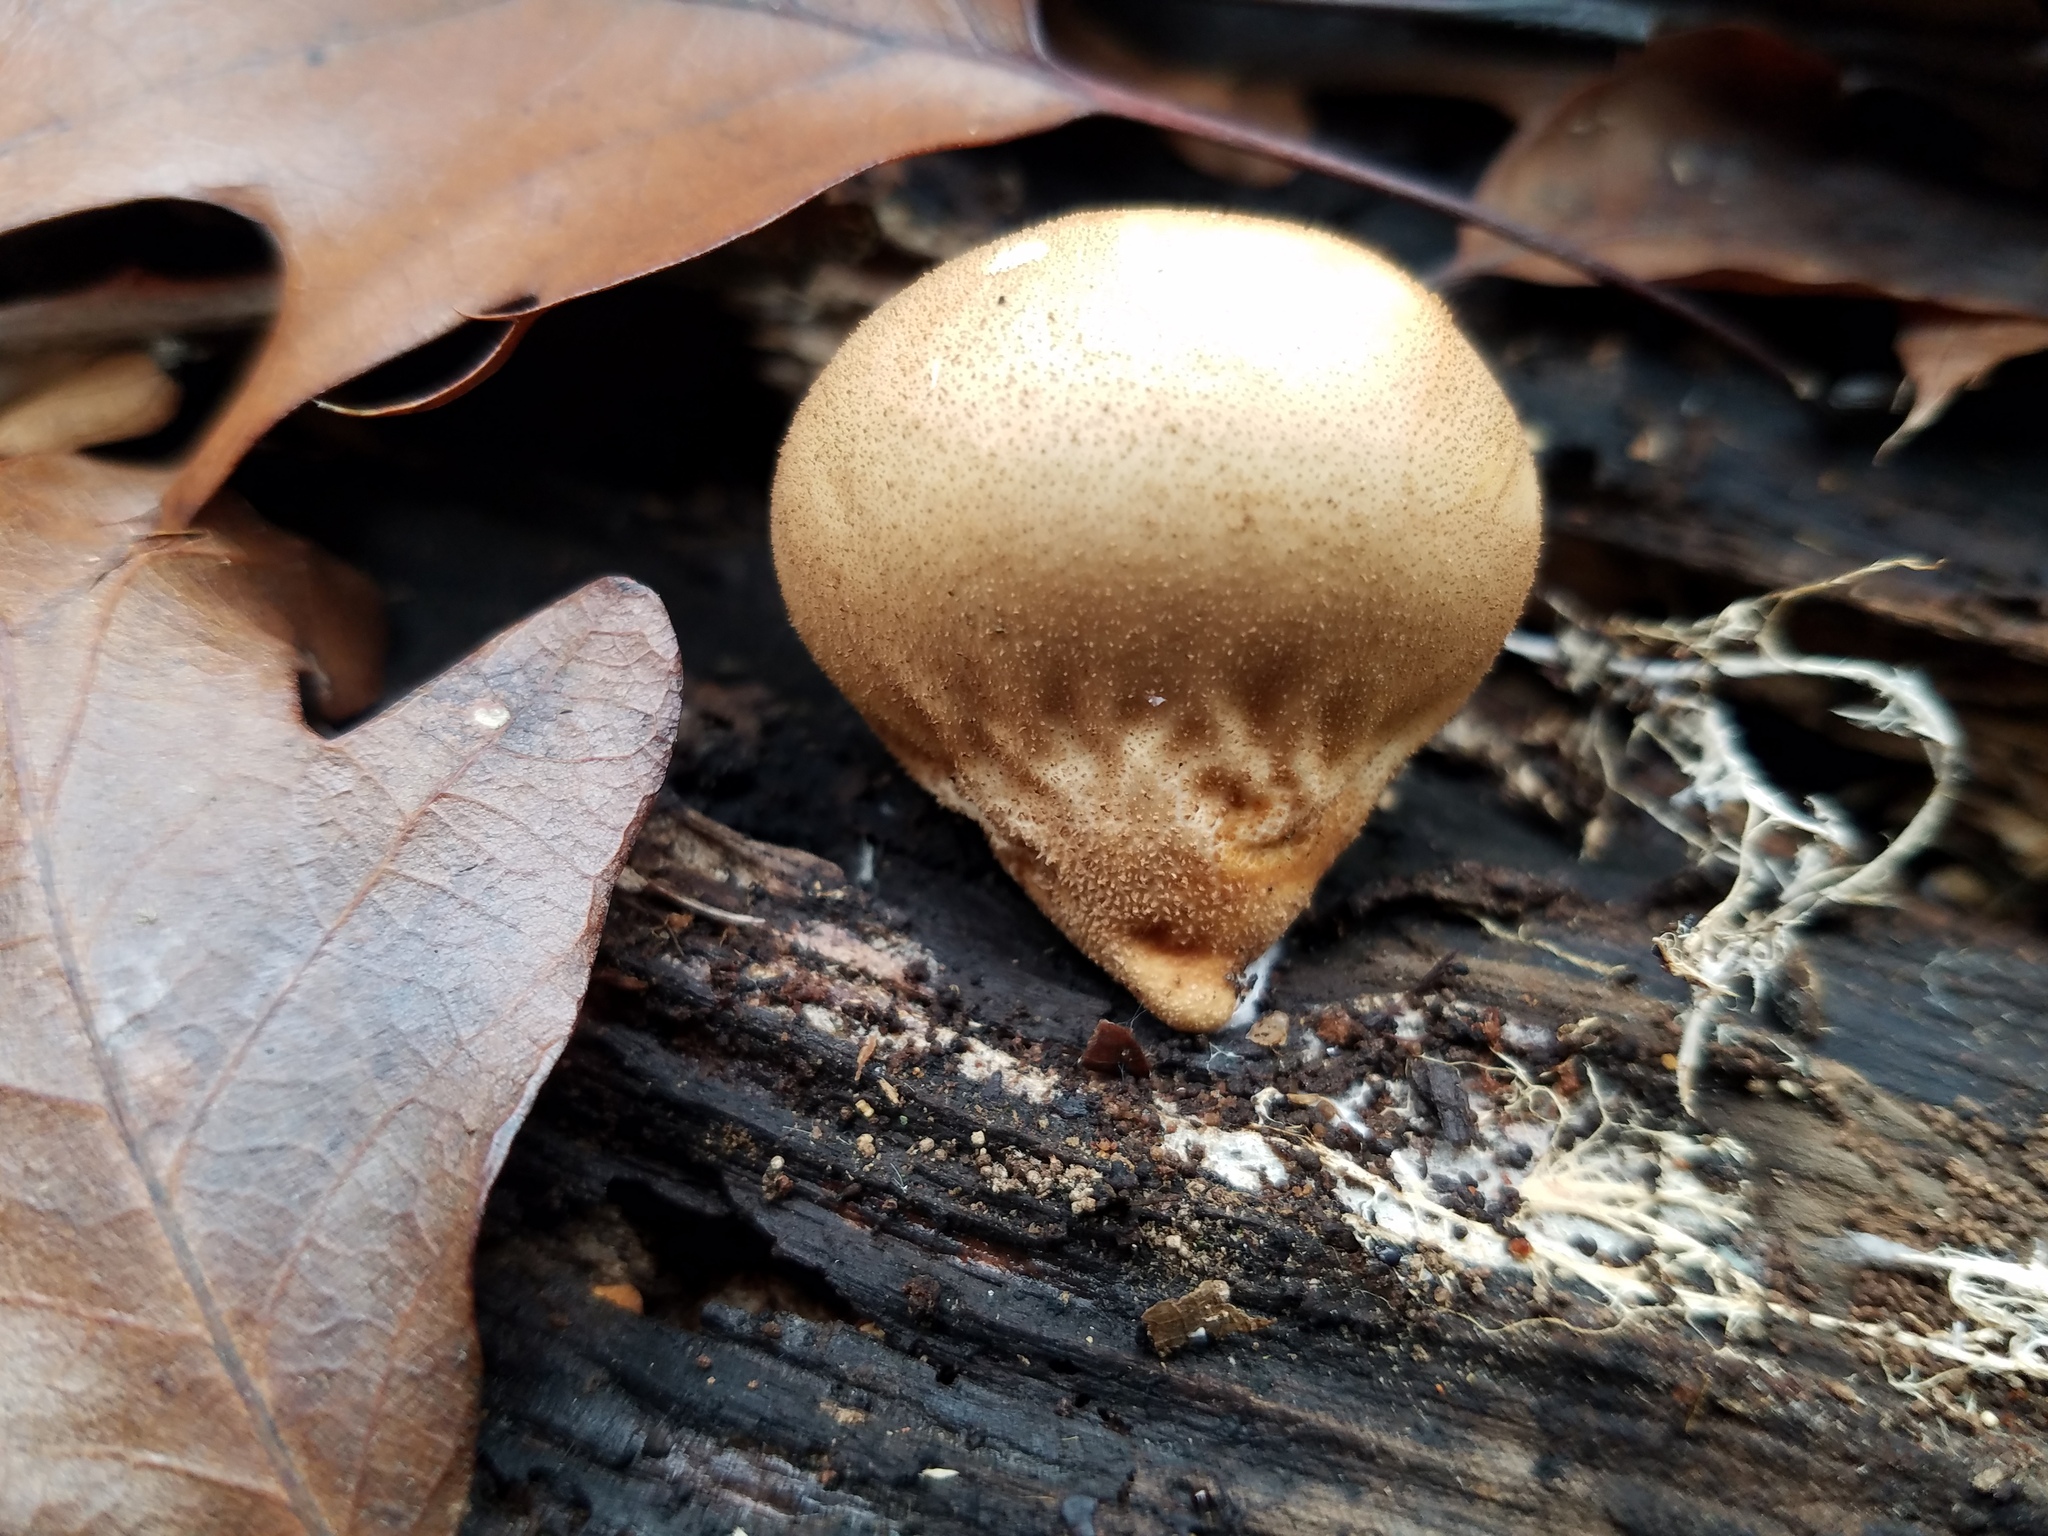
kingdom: Fungi
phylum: Basidiomycota
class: Agaricomycetes
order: Agaricales
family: Lycoperdaceae
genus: Apioperdon
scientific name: Apioperdon pyriforme
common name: Pear-shaped puffball
